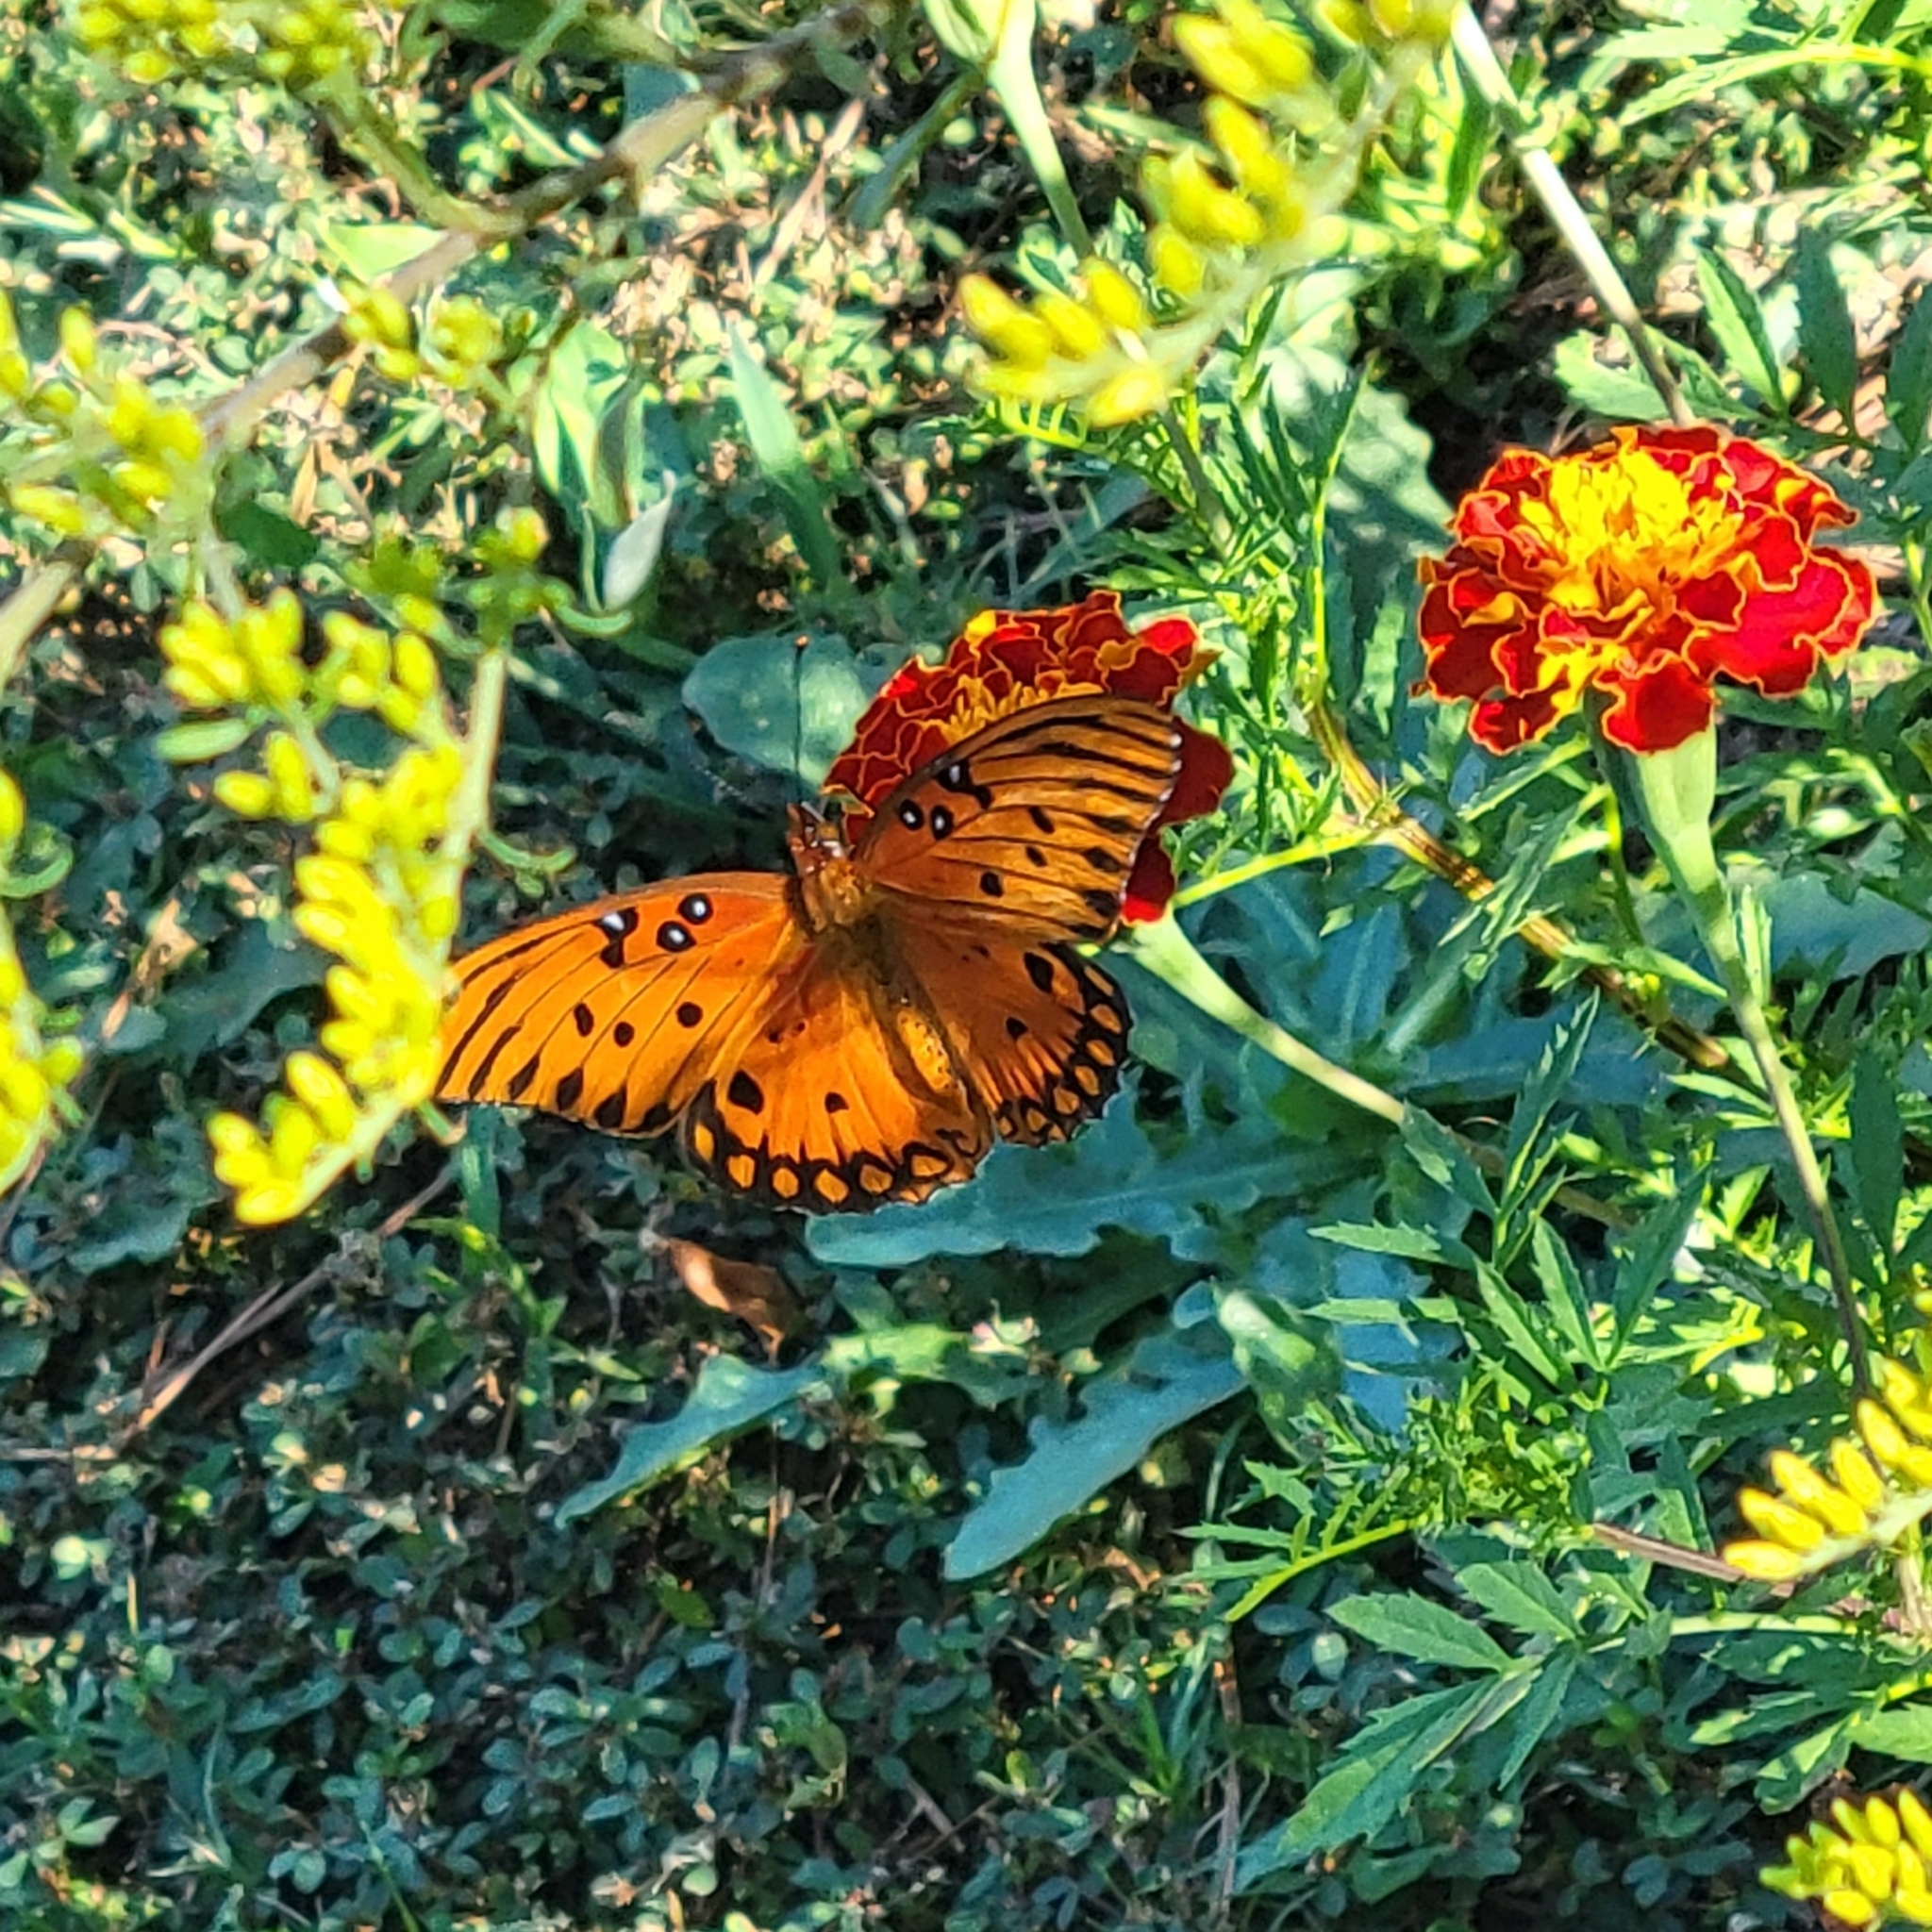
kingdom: Animalia
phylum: Arthropoda
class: Insecta
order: Lepidoptera
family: Nymphalidae
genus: Dione
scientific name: Dione vanillae
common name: Gulf fritillary
